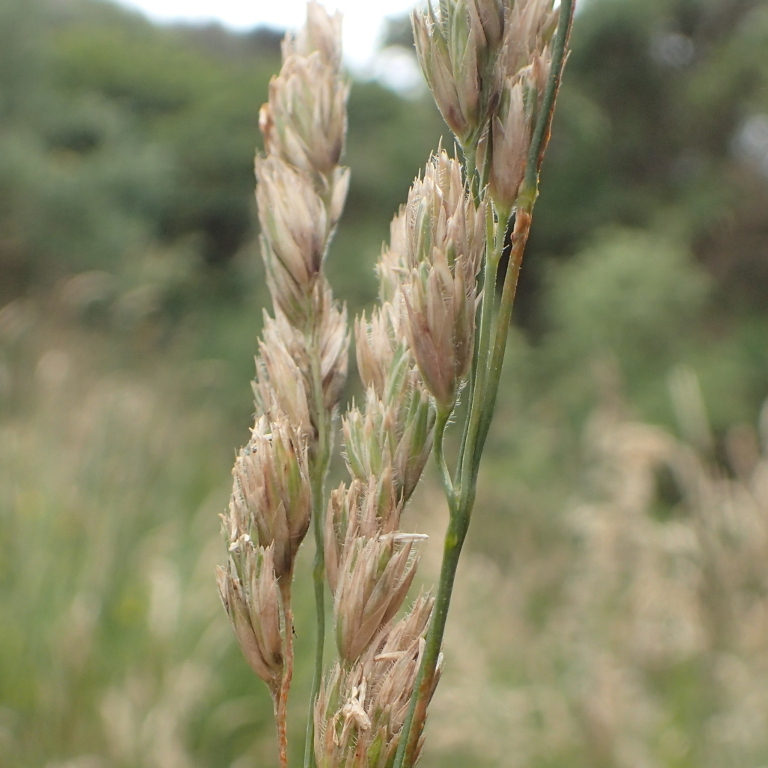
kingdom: Plantae
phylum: Tracheophyta
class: Liliopsida
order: Poales
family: Poaceae
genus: Dactylis
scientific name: Dactylis glomerata
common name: Orchardgrass
